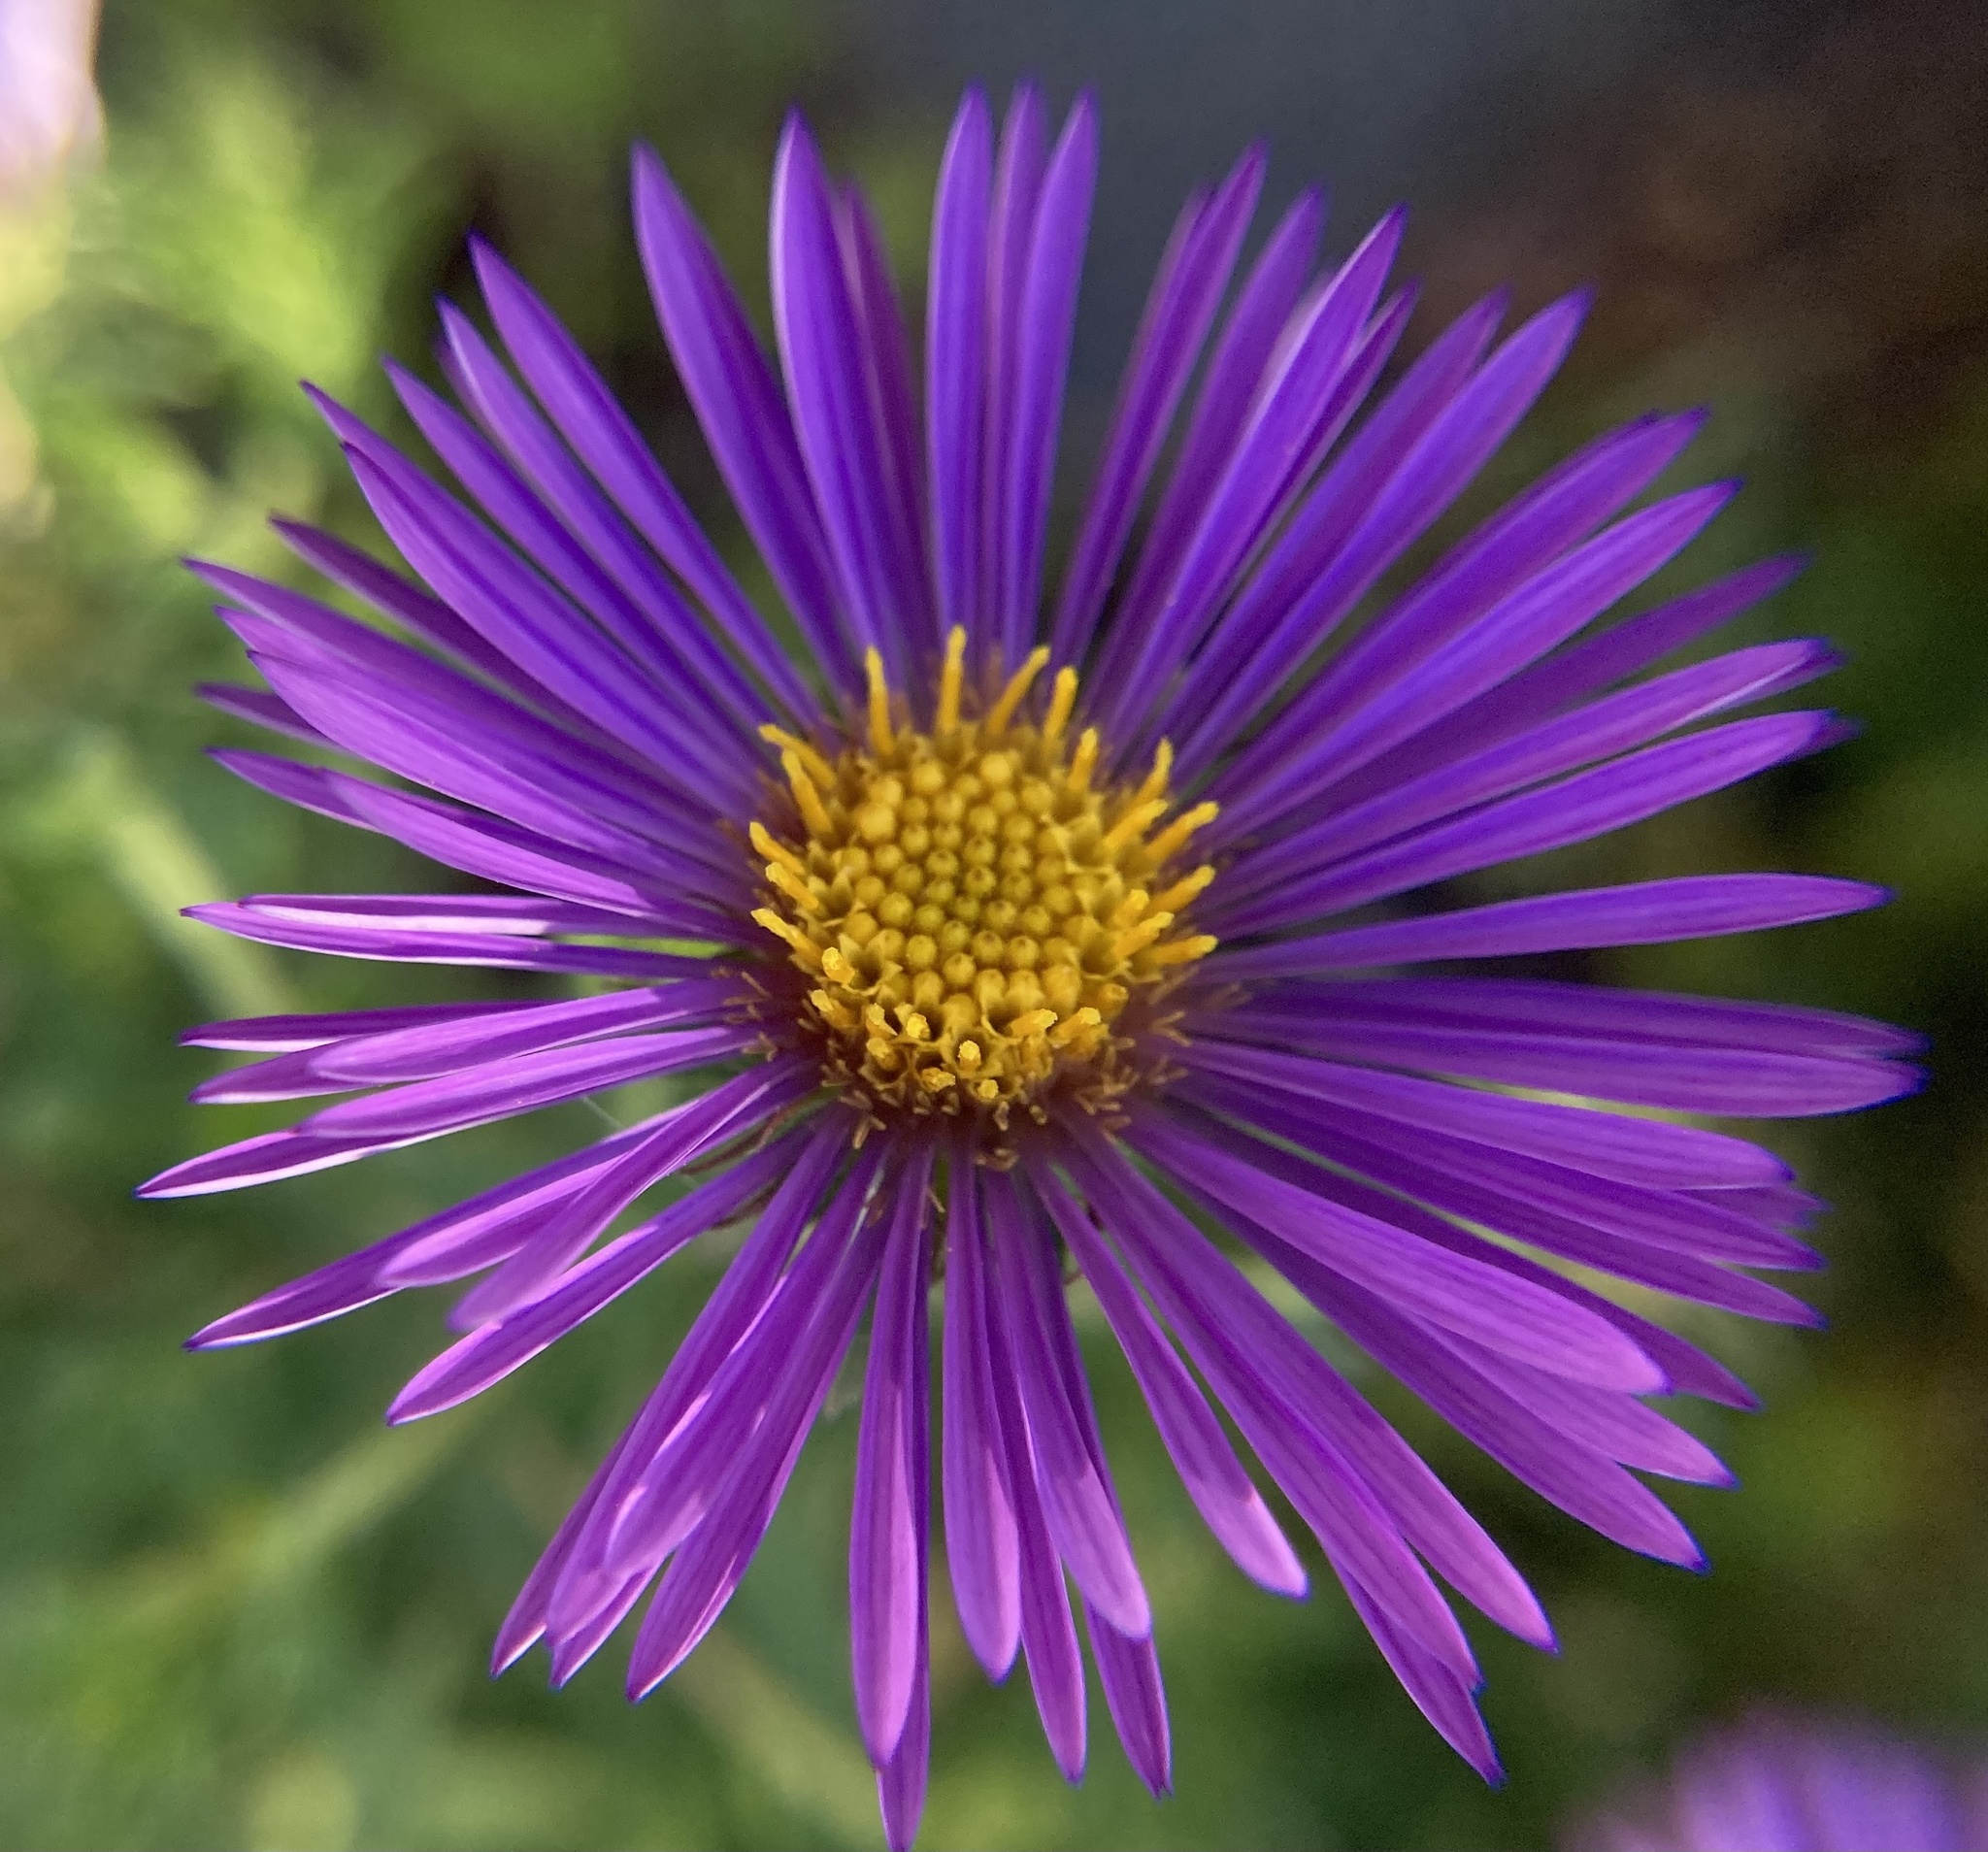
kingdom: Plantae
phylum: Tracheophyta
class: Magnoliopsida
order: Asterales
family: Asteraceae
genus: Symphyotrichum
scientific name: Symphyotrichum novae-angliae
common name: Michaelmas daisy
